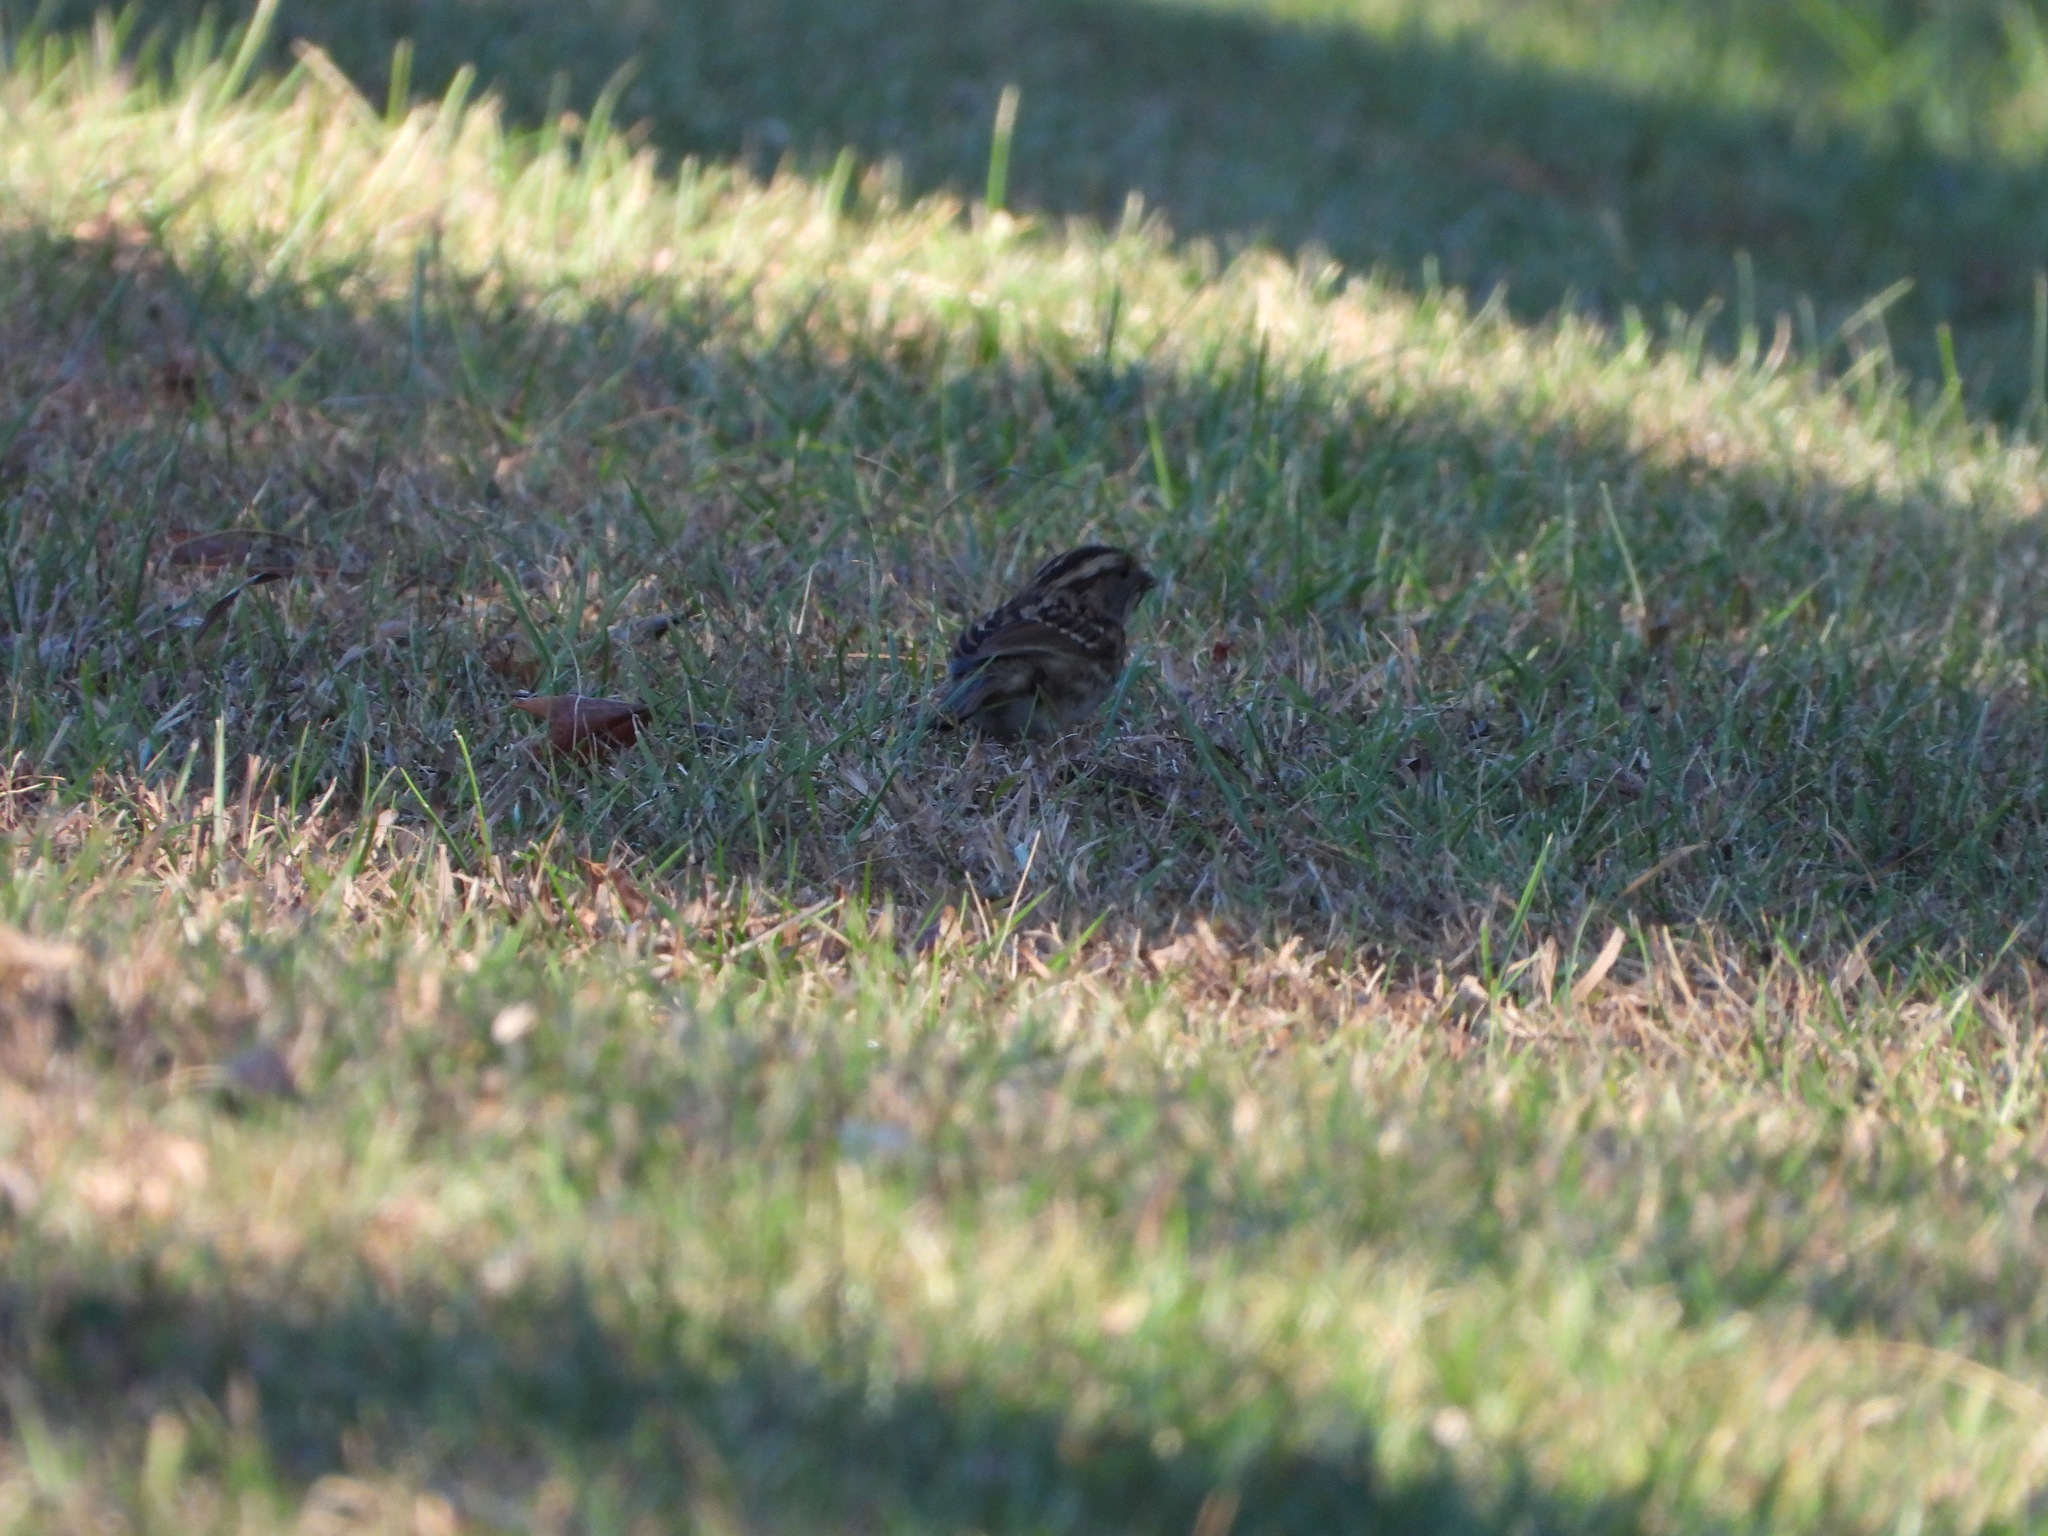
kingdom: Animalia
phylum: Chordata
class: Aves
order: Passeriformes
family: Passerellidae
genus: Zonotrichia
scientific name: Zonotrichia albicollis
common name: White-throated sparrow
